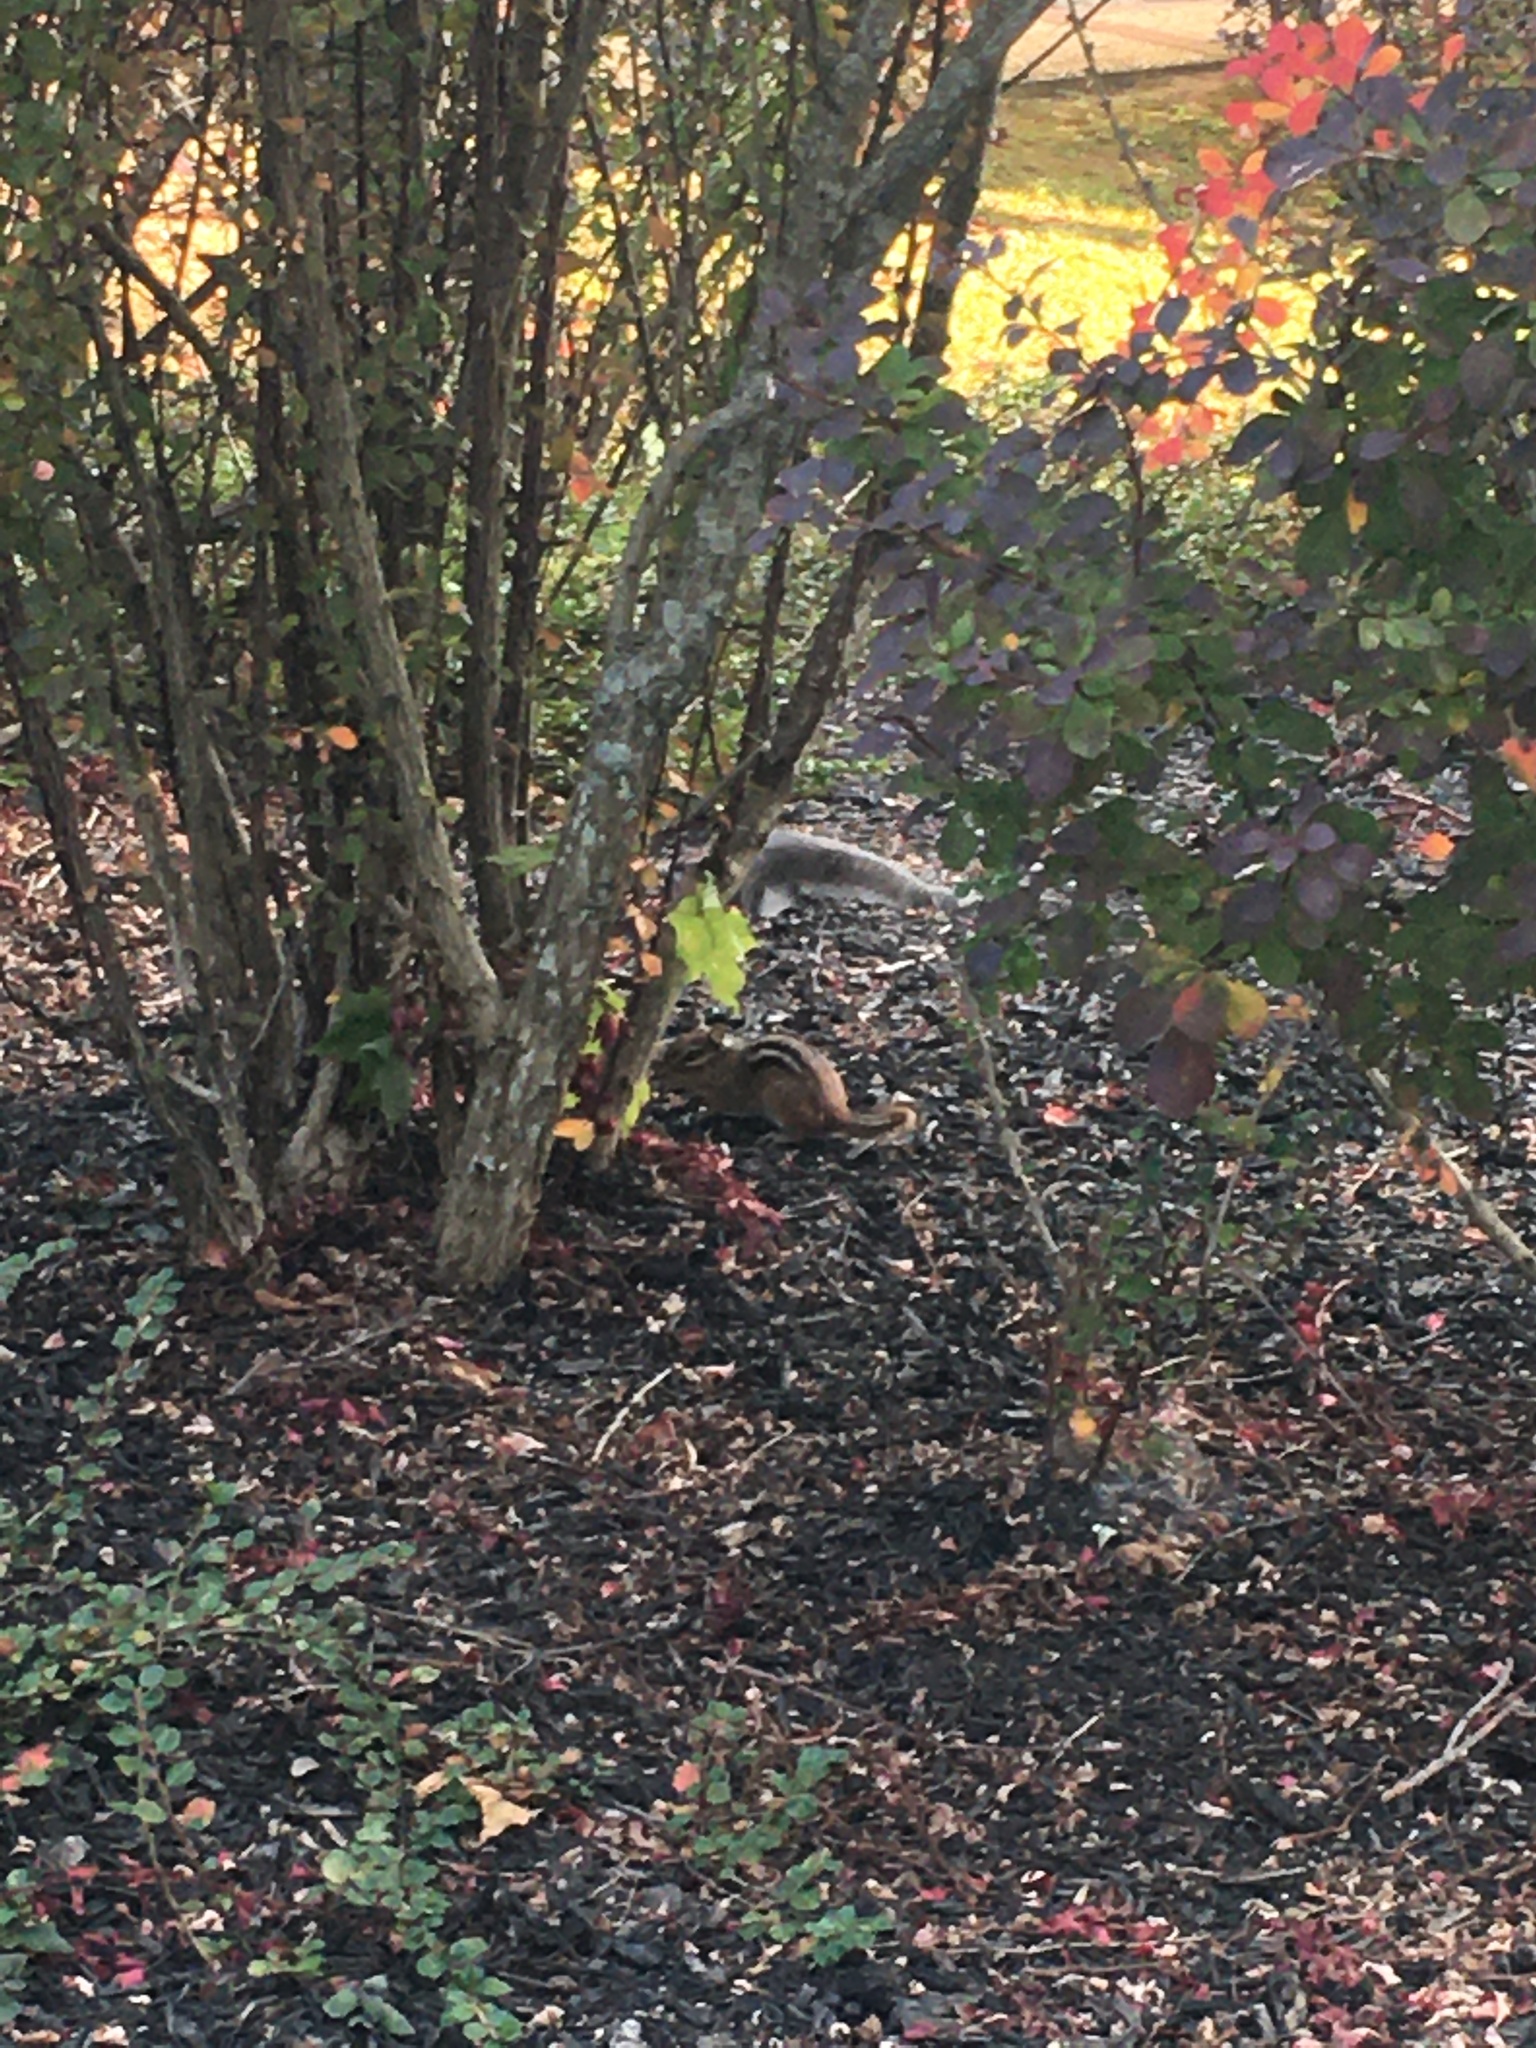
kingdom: Animalia
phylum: Chordata
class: Mammalia
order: Rodentia
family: Sciuridae
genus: Tamias
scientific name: Tamias striatus
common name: Eastern chipmunk
